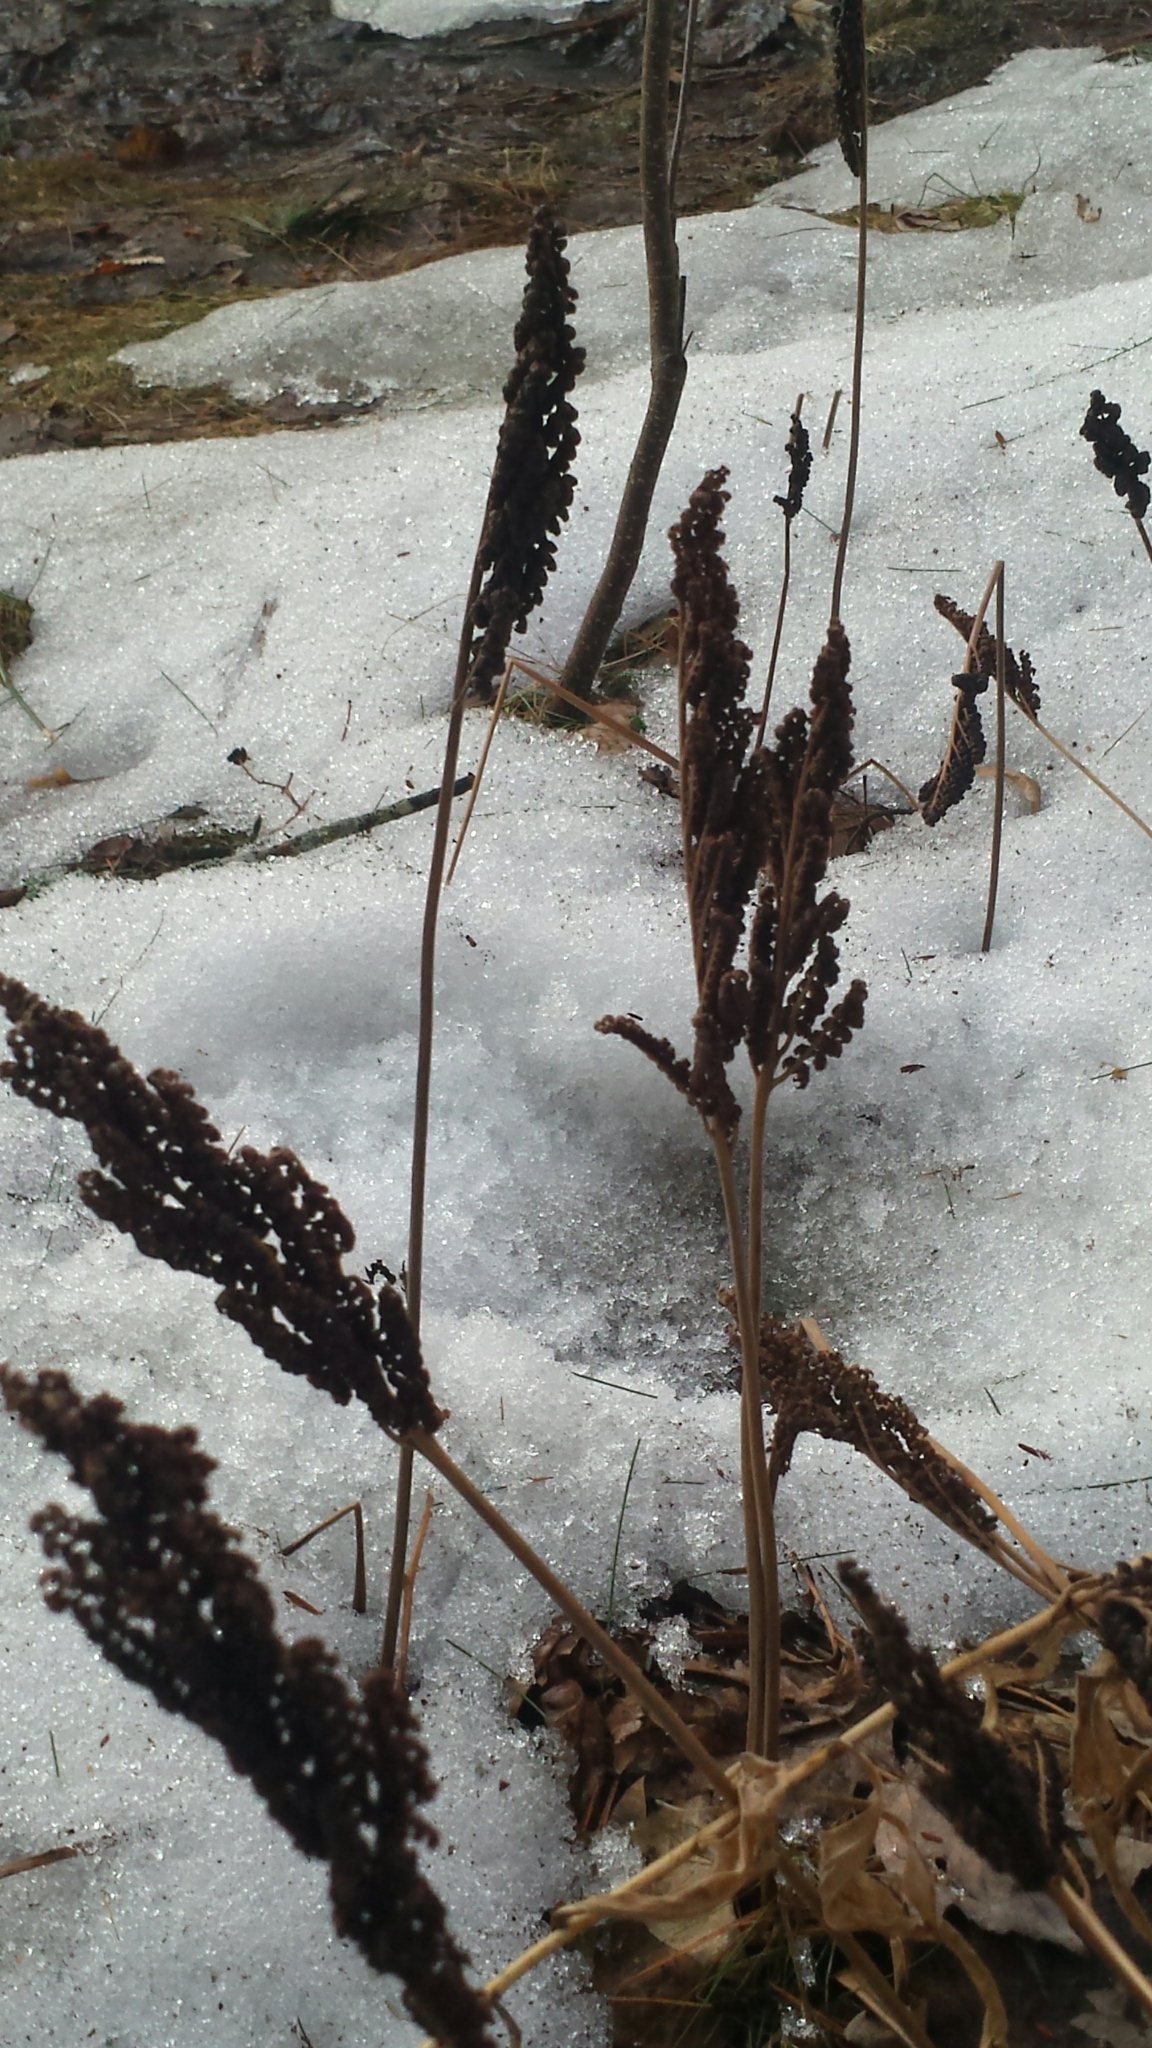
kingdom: Plantae
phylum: Tracheophyta
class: Polypodiopsida
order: Polypodiales
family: Onocleaceae
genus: Onoclea
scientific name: Onoclea sensibilis
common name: Sensitive fern
